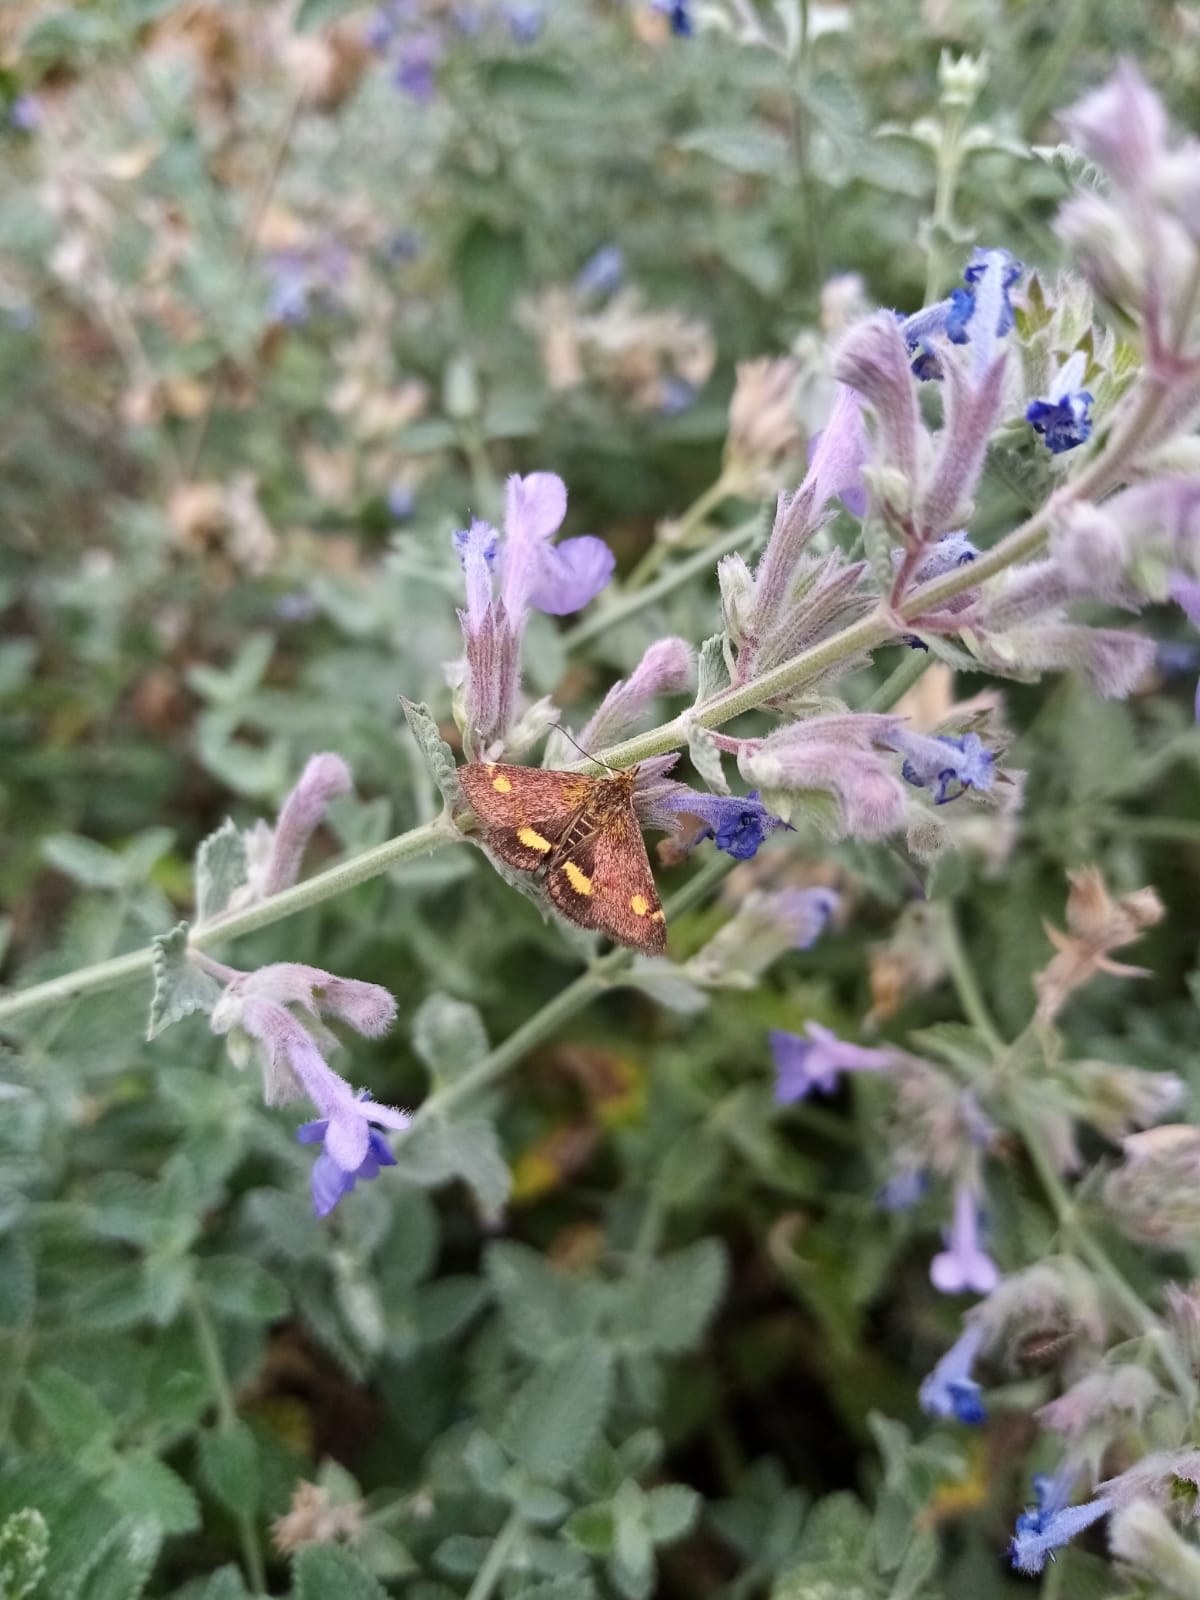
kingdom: Animalia
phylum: Arthropoda
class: Insecta
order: Lepidoptera
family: Crambidae
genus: Pyrausta
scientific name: Pyrausta aurata
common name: Small purple & gold
